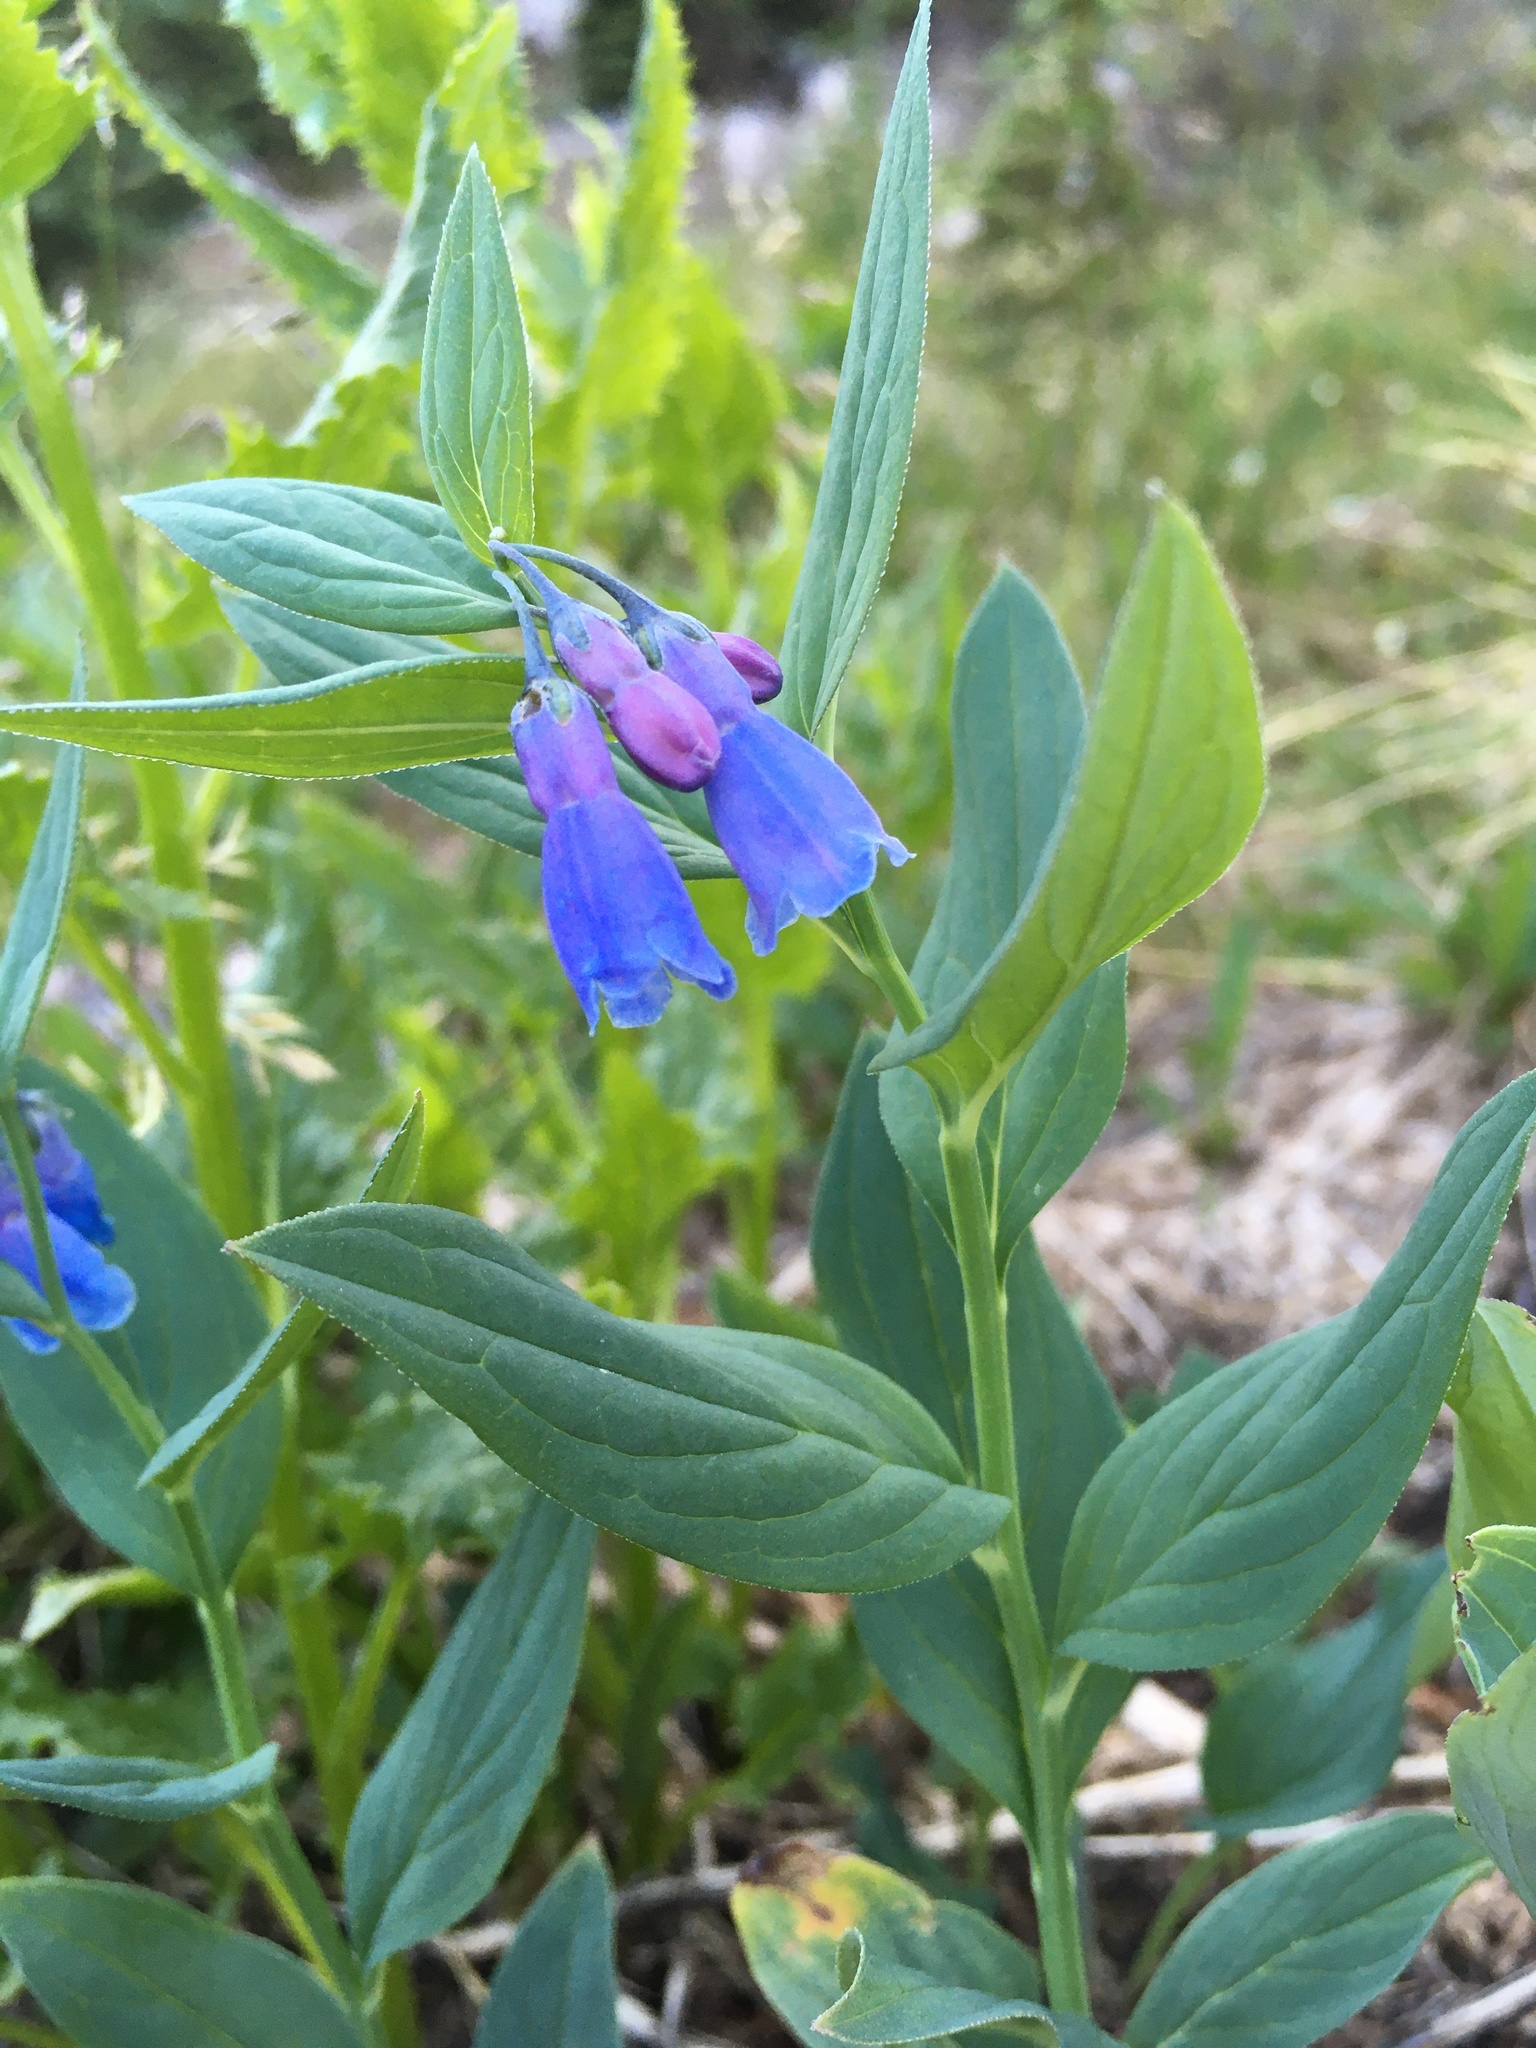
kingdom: Plantae
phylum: Tracheophyta
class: Magnoliopsida
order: Boraginales
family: Boraginaceae
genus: Mertensia
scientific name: Mertensia ciliata
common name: Tall chiming-bells
